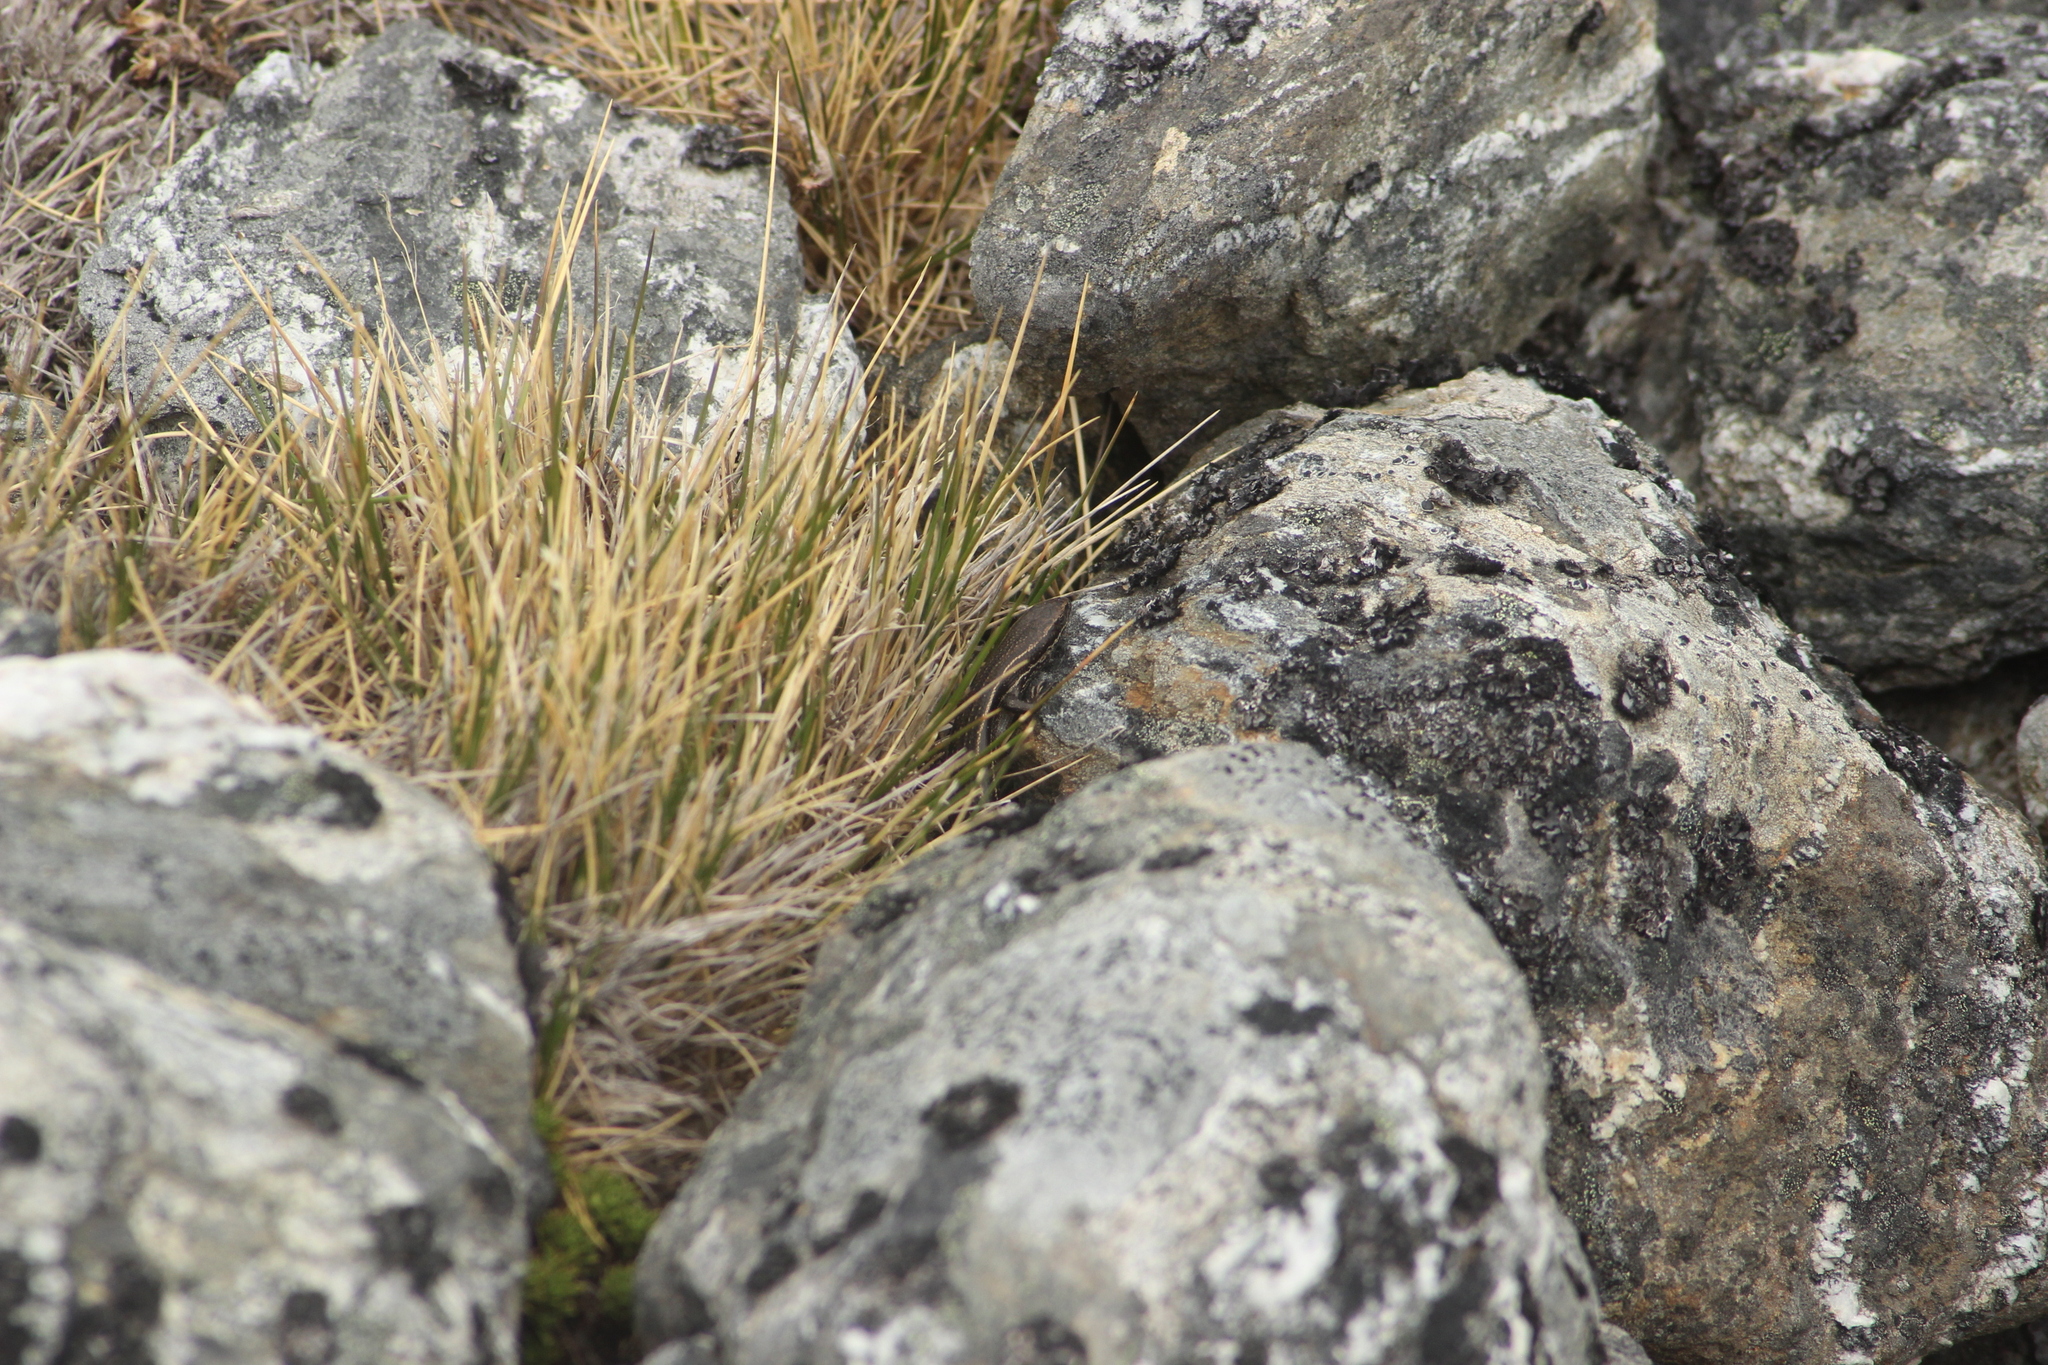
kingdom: Animalia
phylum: Chordata
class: Squamata
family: Scincidae
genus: Oligosoma
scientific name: Oligosoma toka
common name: Nevis skink
